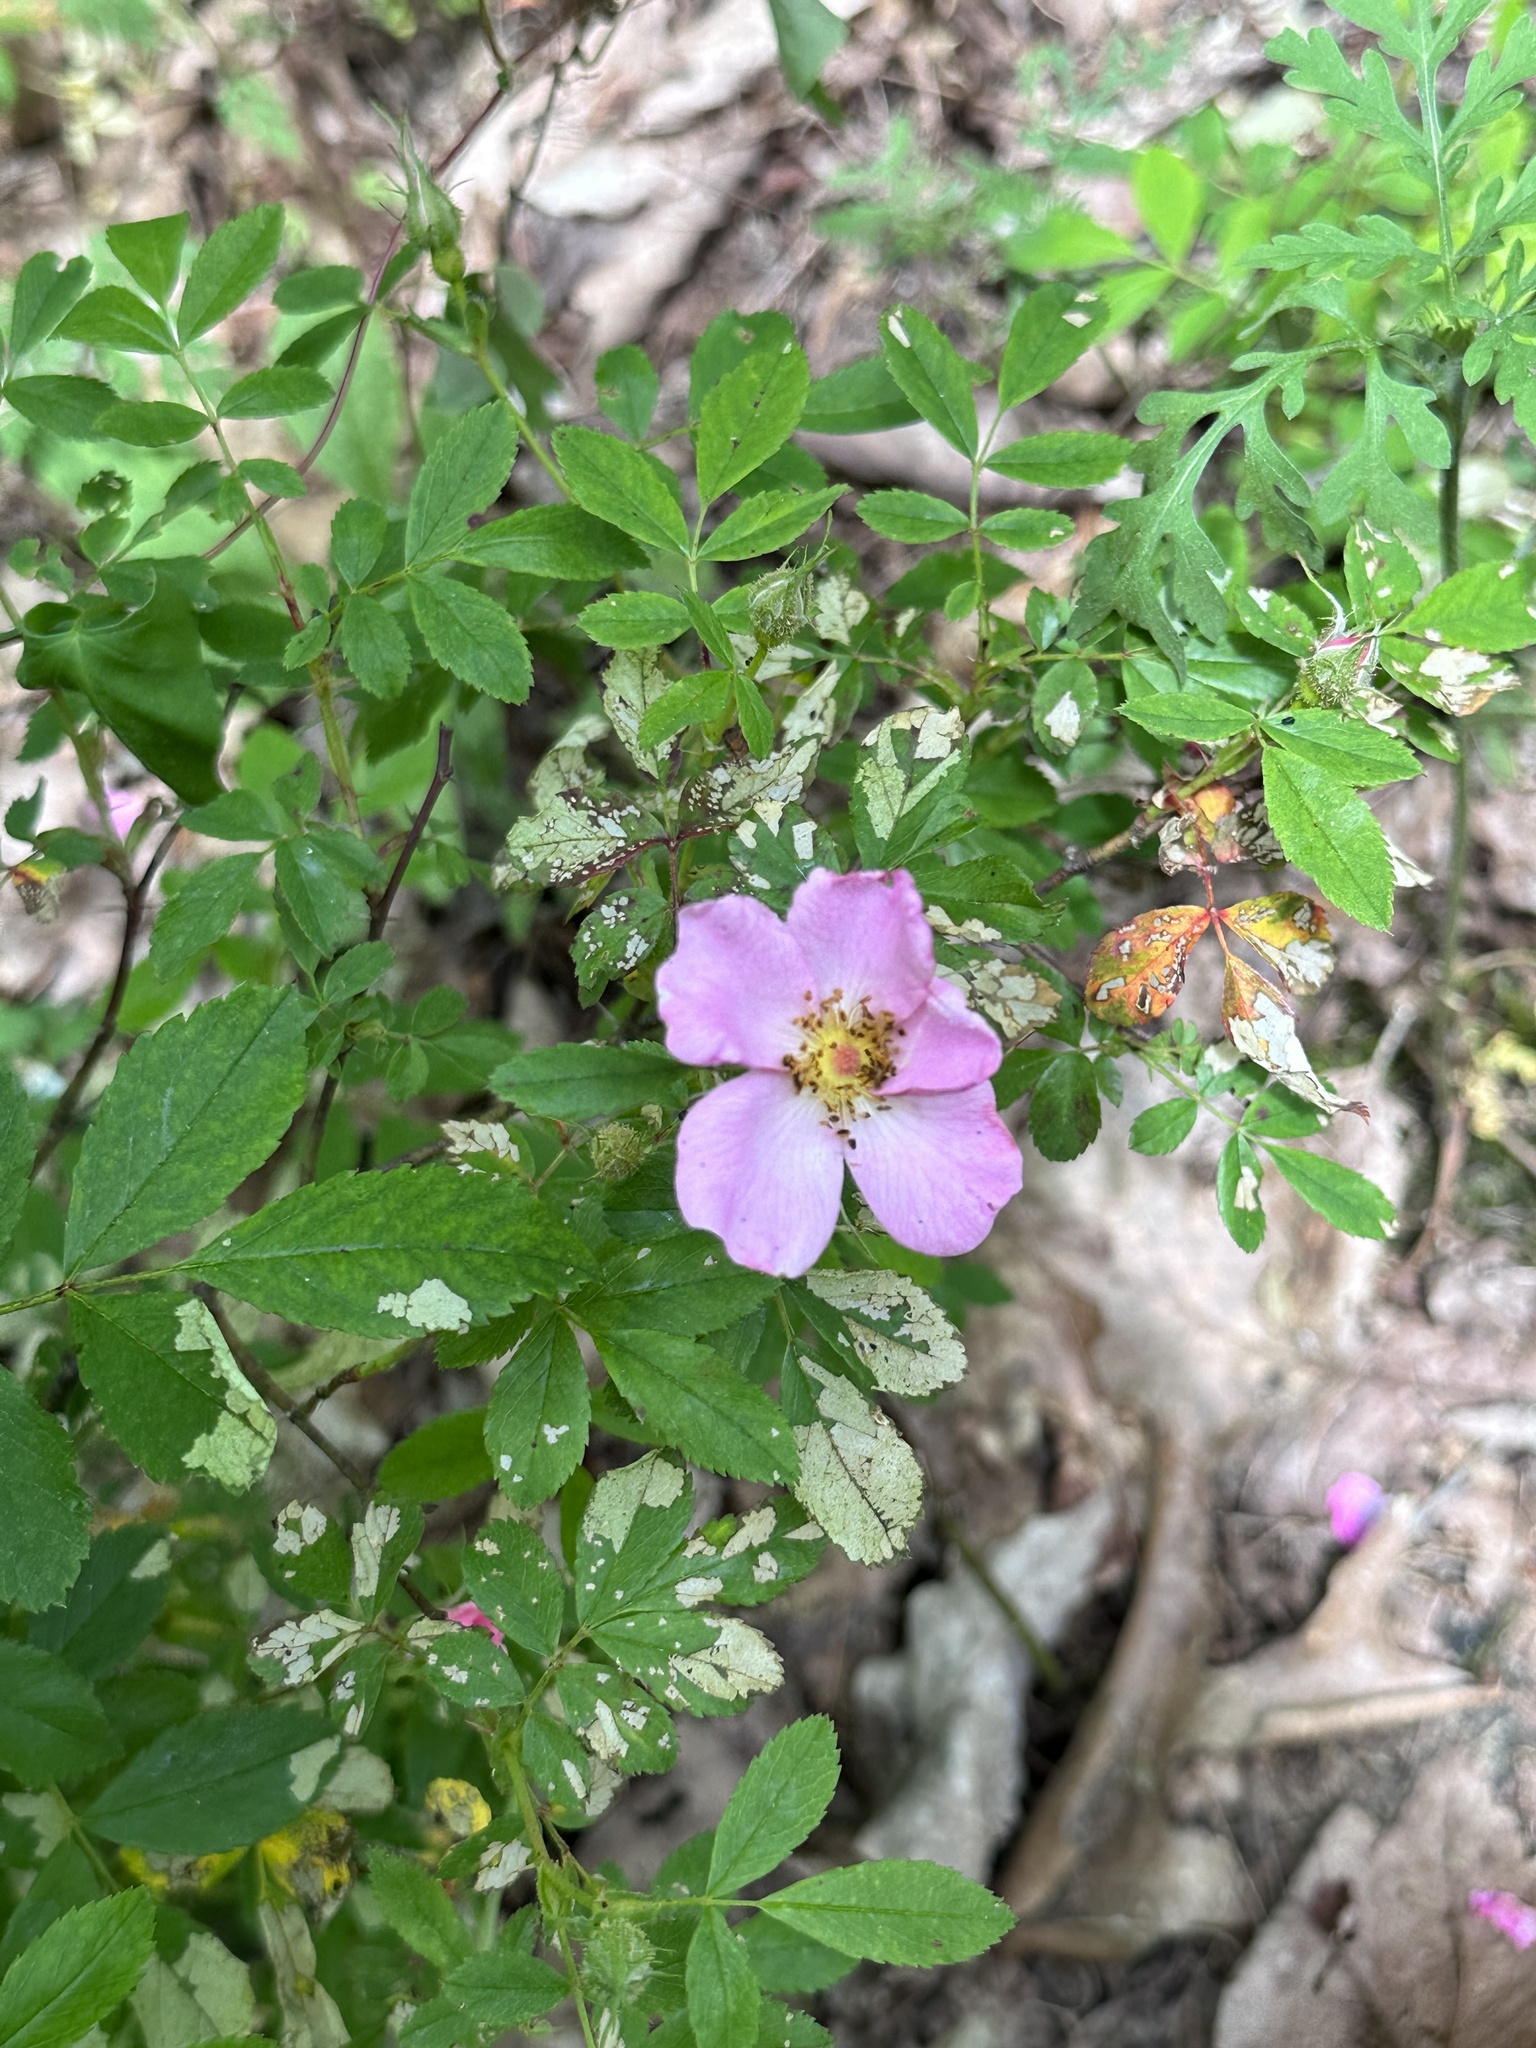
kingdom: Plantae
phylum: Tracheophyta
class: Magnoliopsida
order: Rosales
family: Rosaceae
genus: Rosa
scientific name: Rosa carolina
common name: Pasture rose
